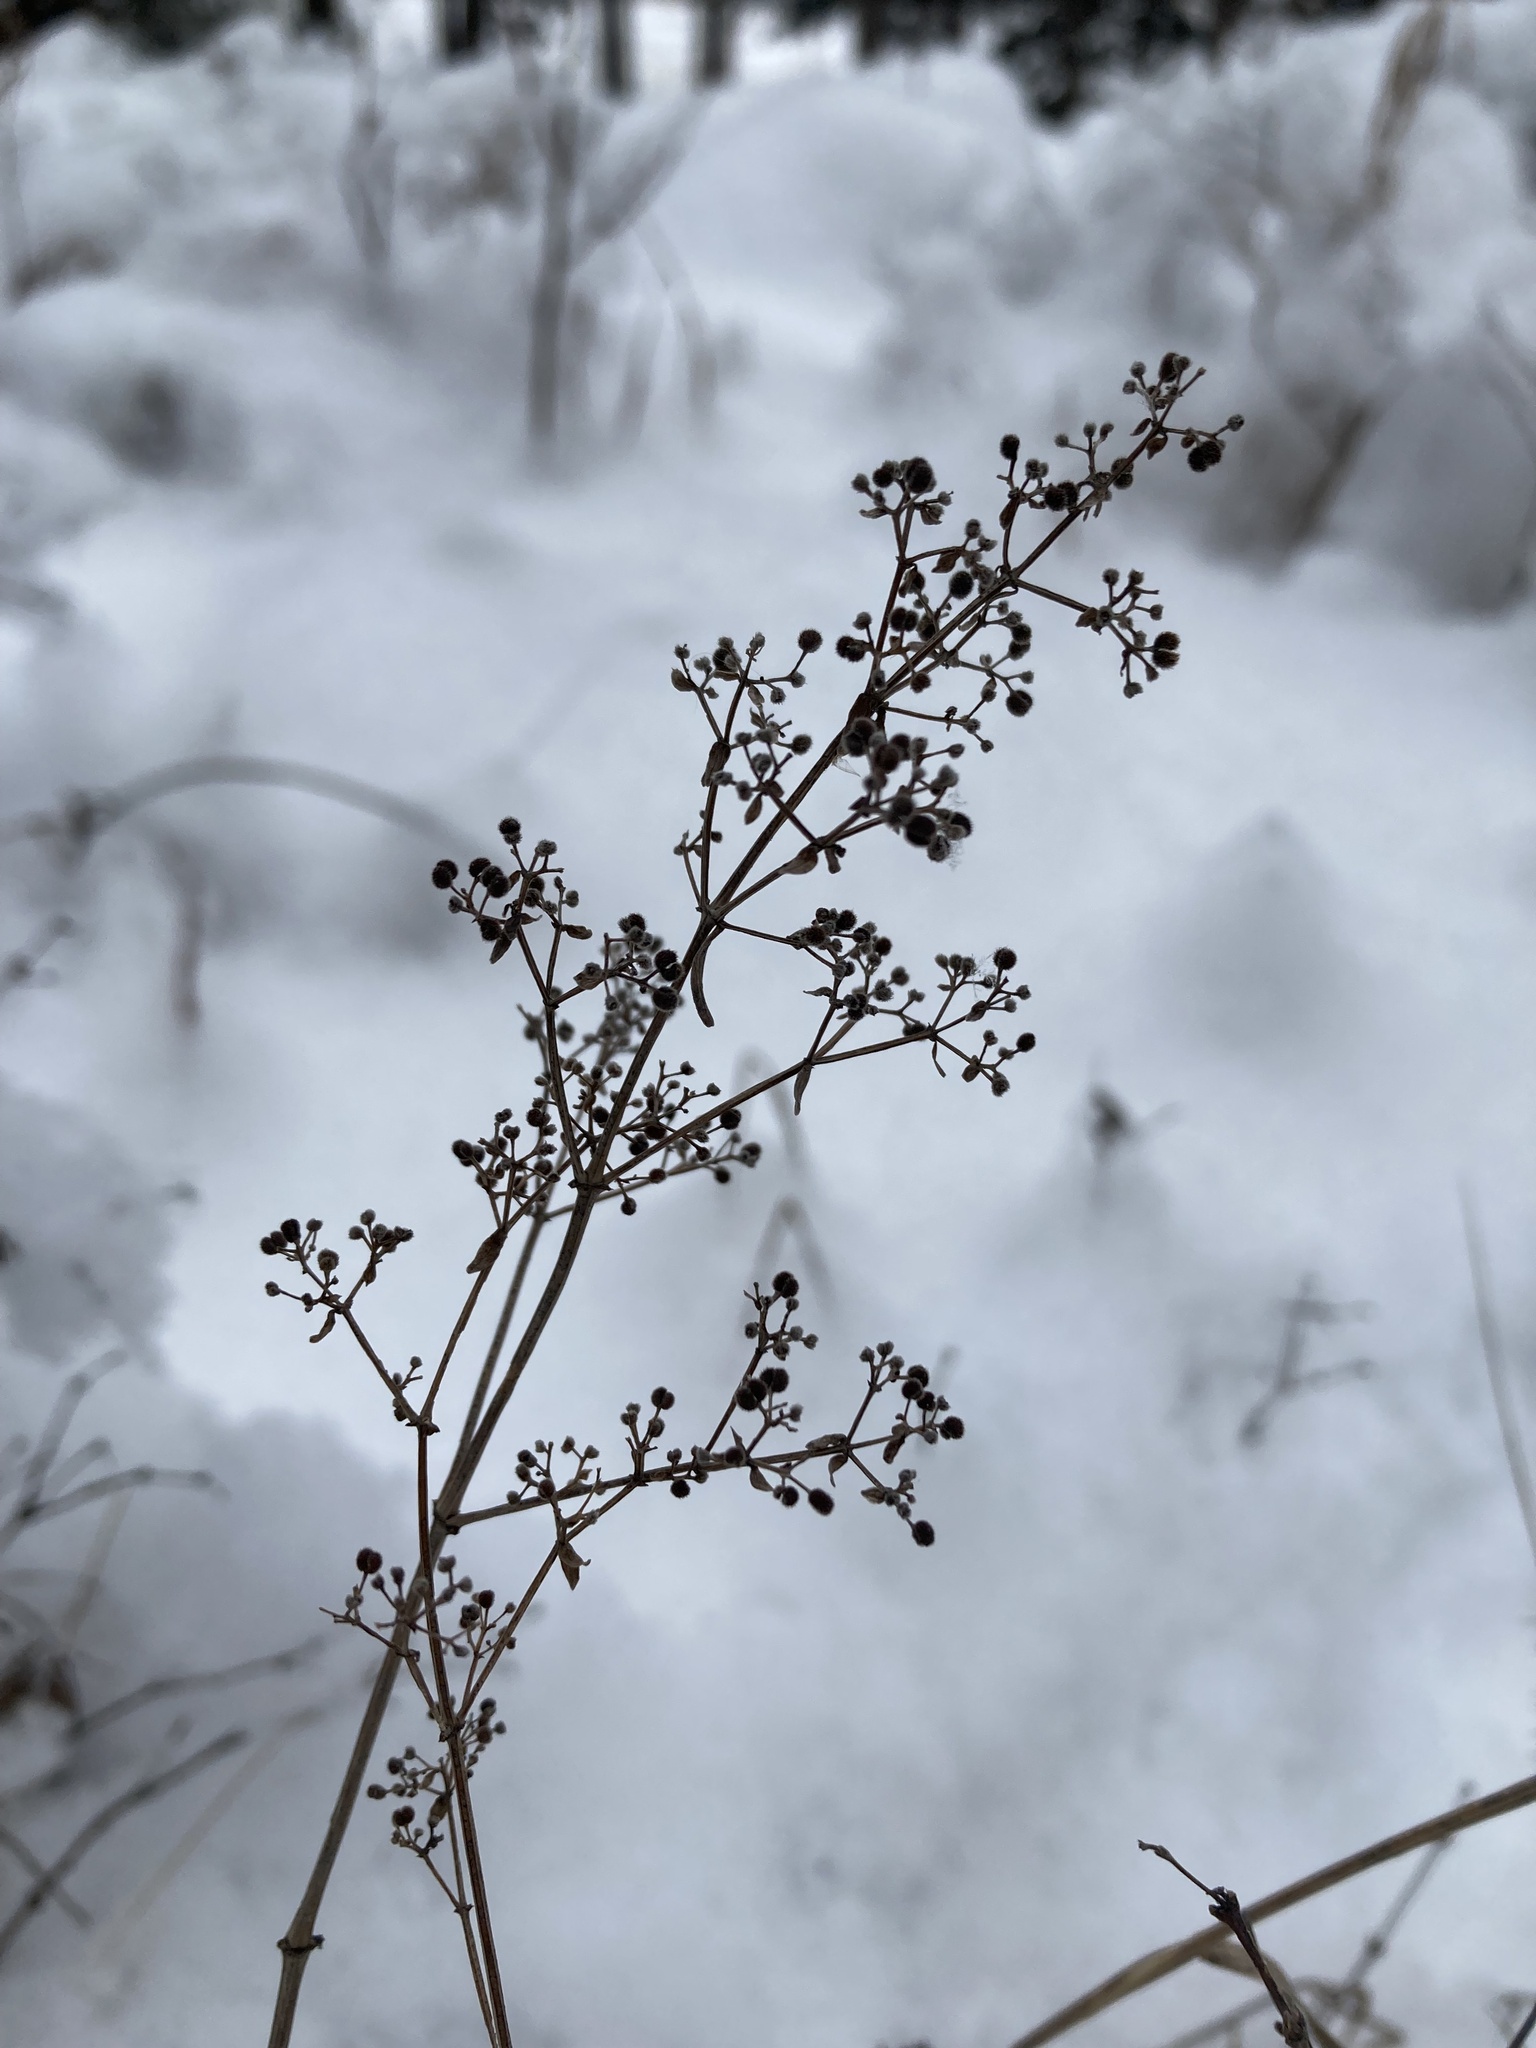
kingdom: Plantae
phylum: Tracheophyta
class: Magnoliopsida
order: Gentianales
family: Rubiaceae
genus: Galium
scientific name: Galium boreale
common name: Northern bedstraw
